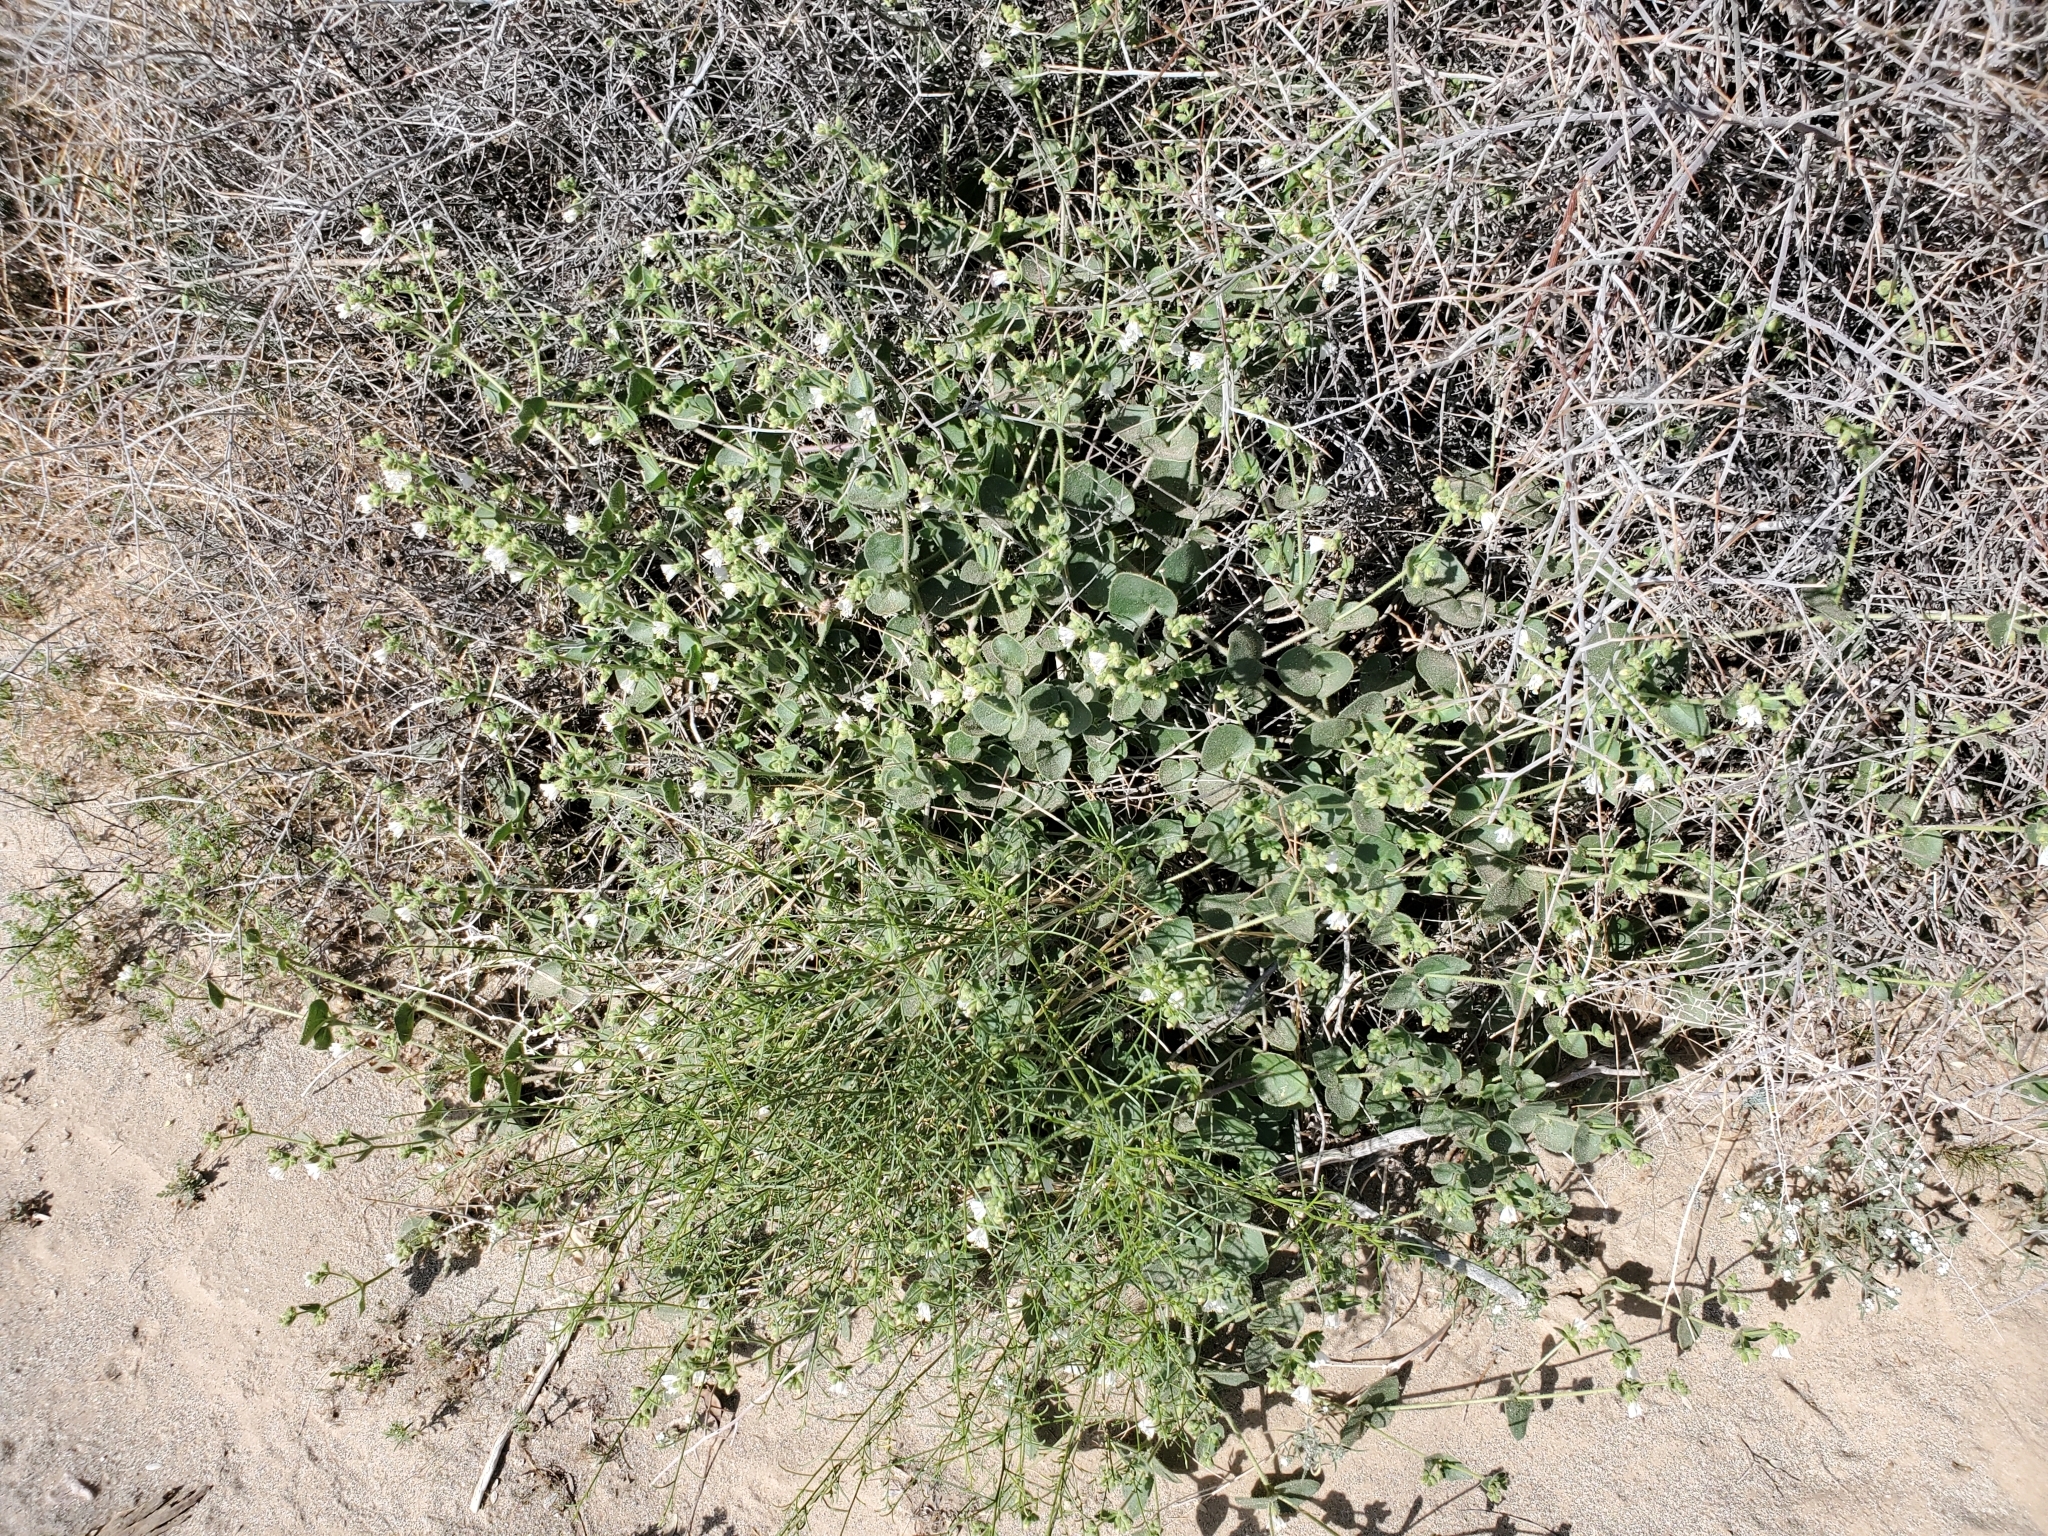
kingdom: Plantae
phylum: Tracheophyta
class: Magnoliopsida
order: Caryophyllales
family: Nyctaginaceae
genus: Mirabilis
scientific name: Mirabilis laevis
